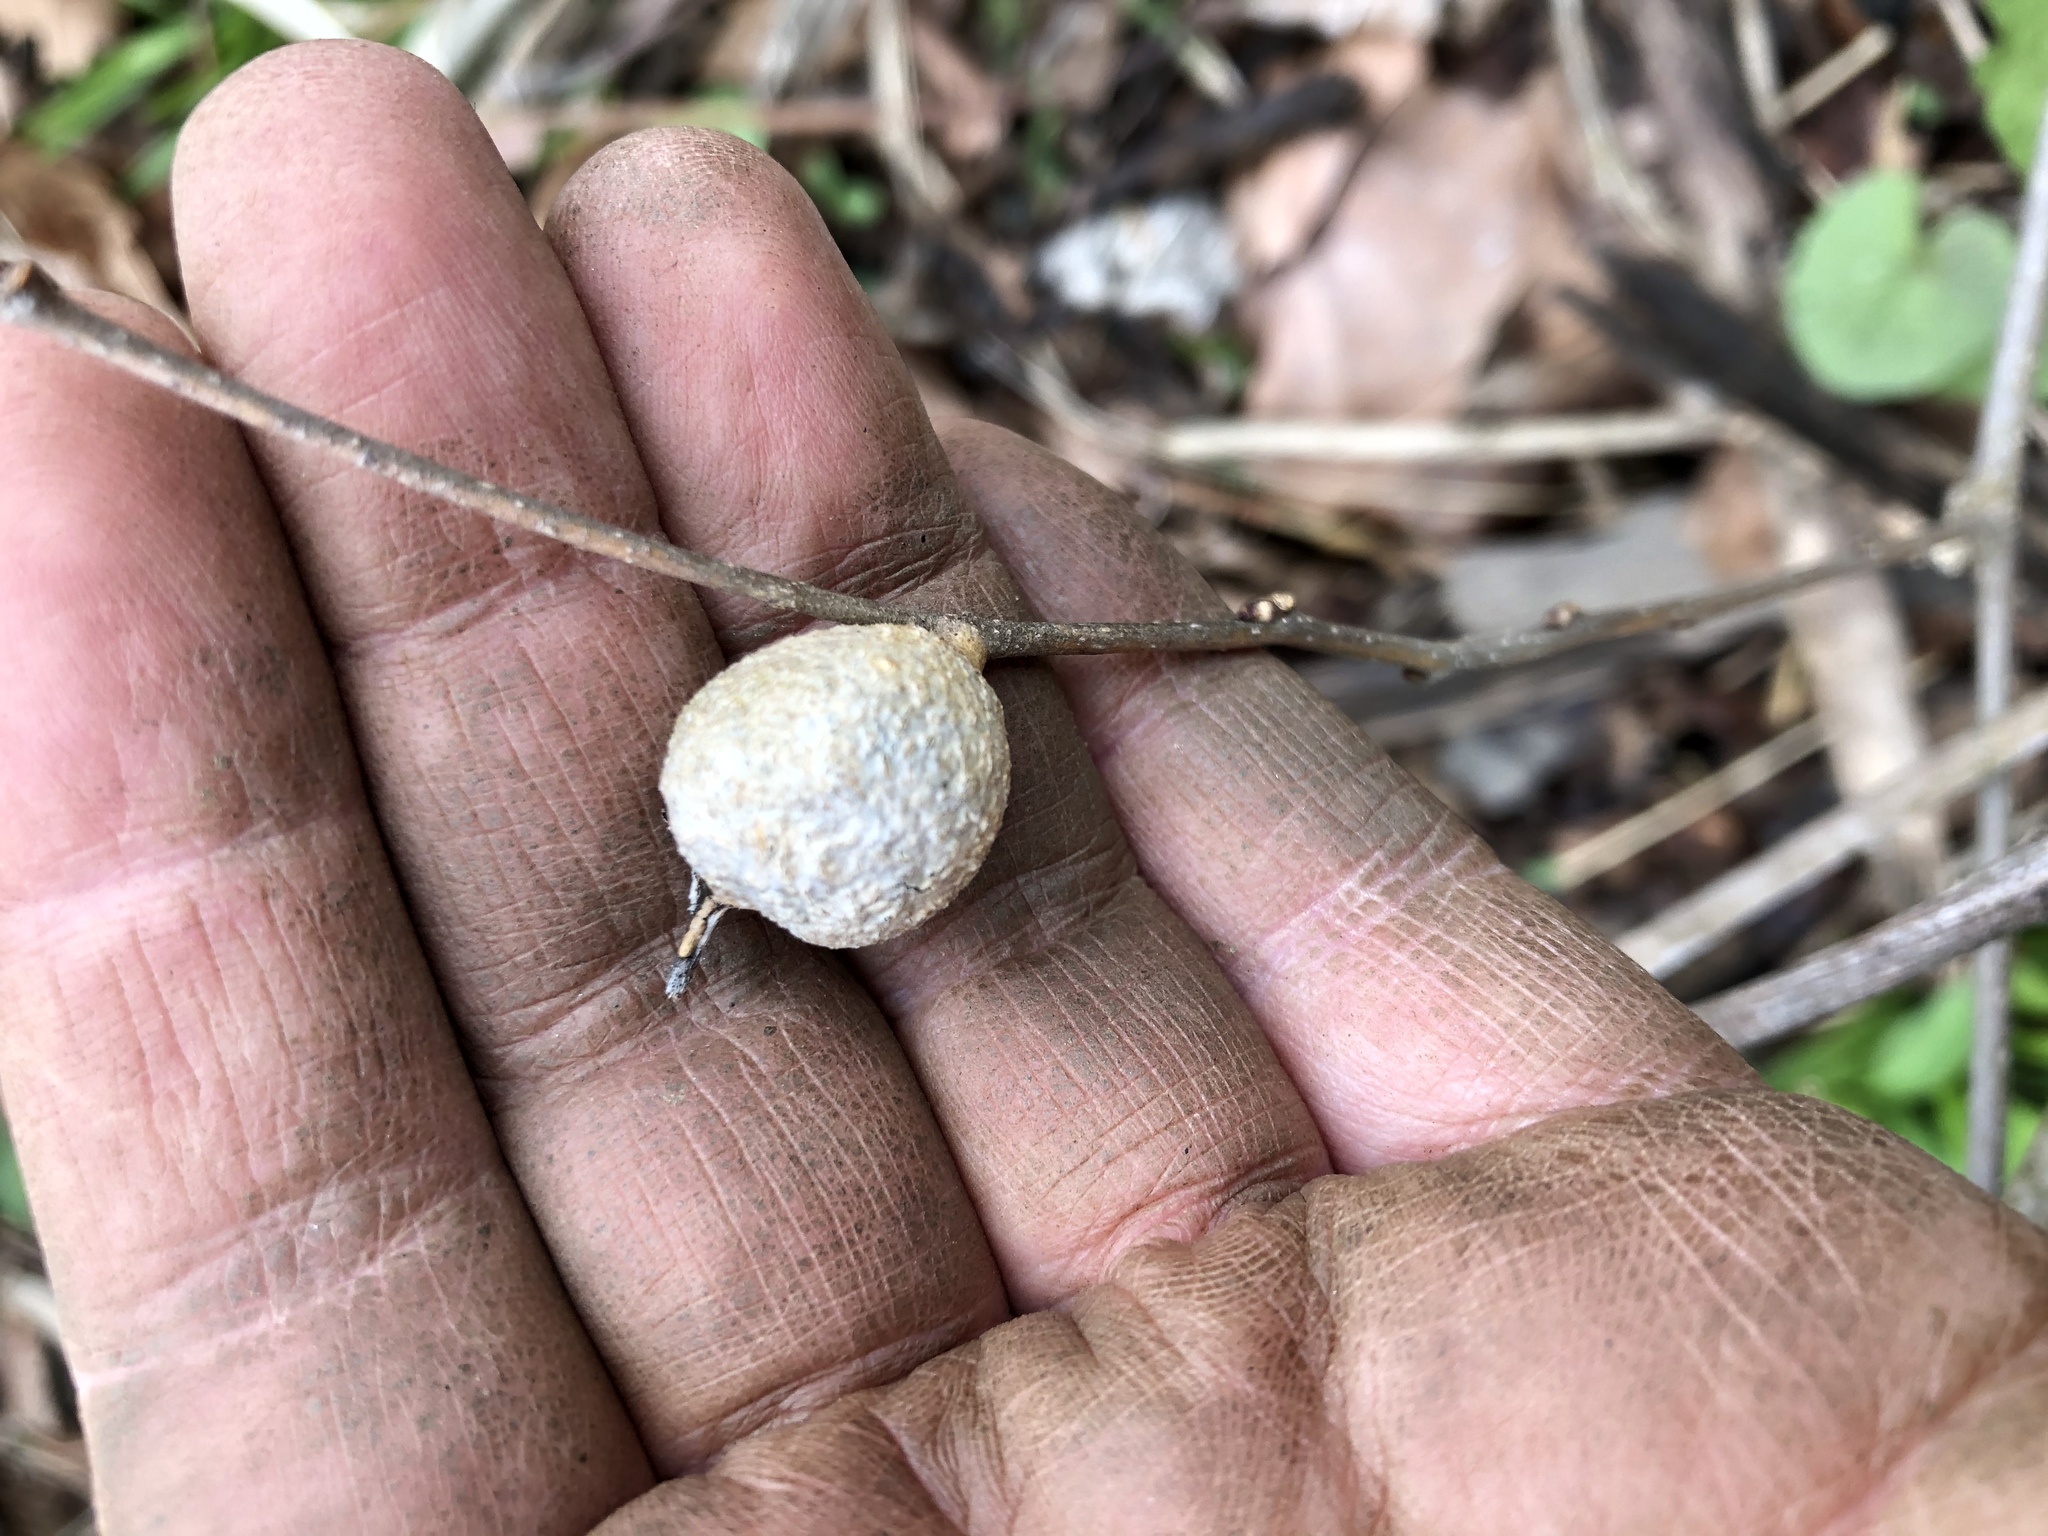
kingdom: Animalia
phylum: Arthropoda
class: Insecta
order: Hemiptera
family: Aphalaridae
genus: Pachypsylla
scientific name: Pachypsylla venusta
